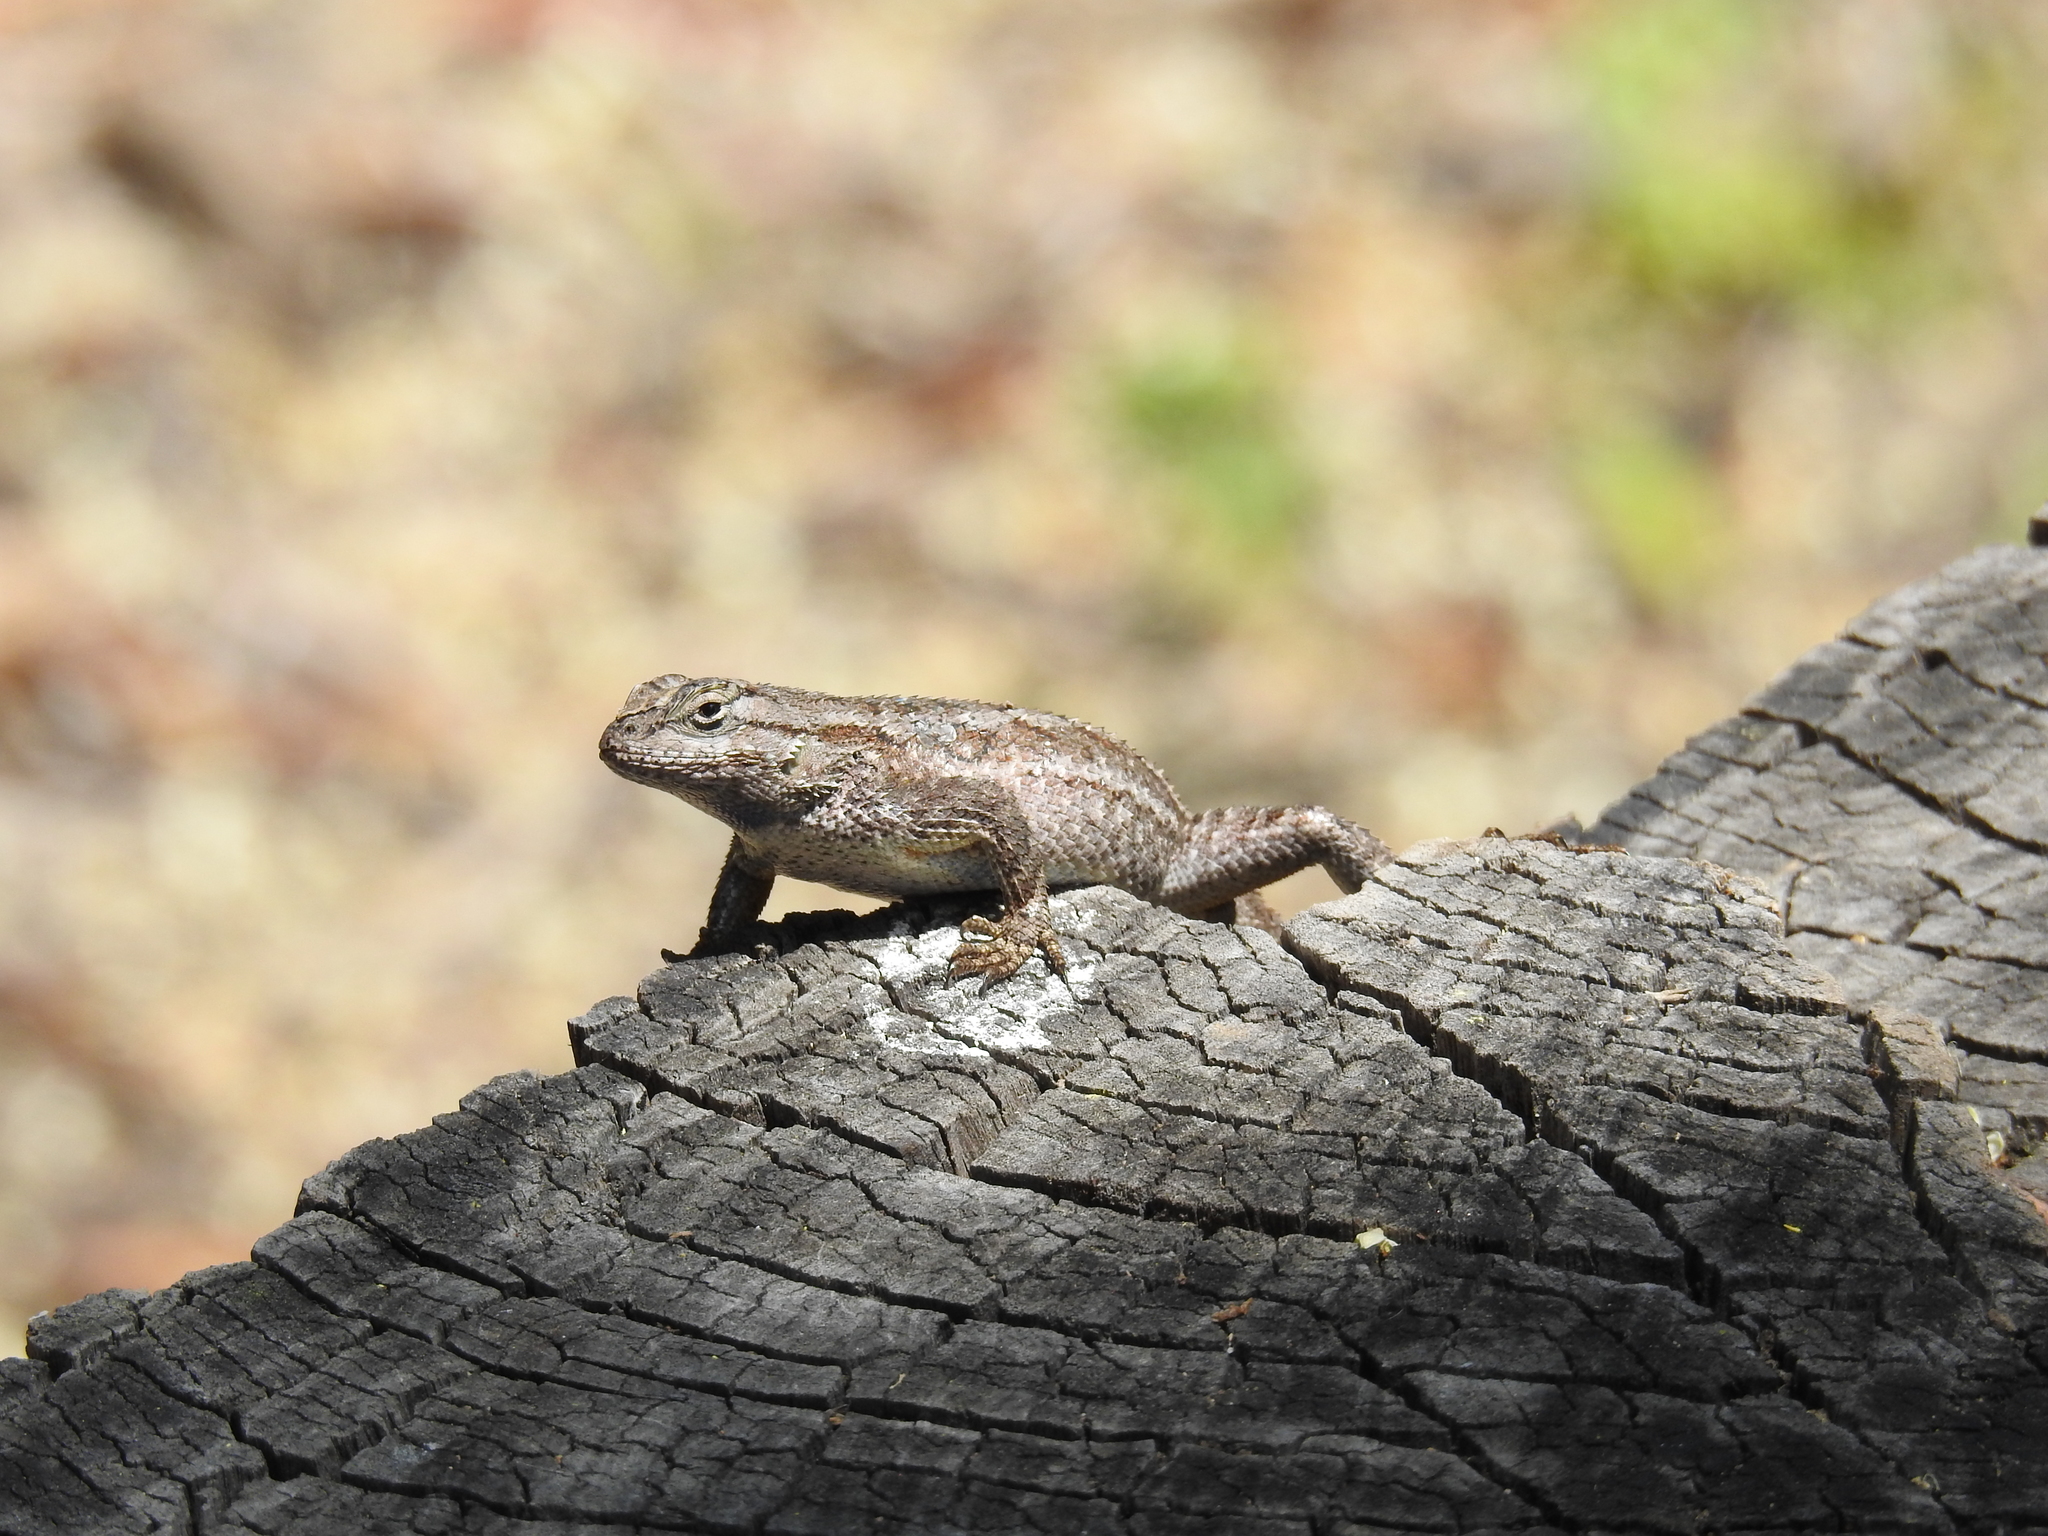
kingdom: Animalia
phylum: Chordata
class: Squamata
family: Phrynosomatidae
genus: Sceloporus
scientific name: Sceloporus occidentalis
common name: Western fence lizard
